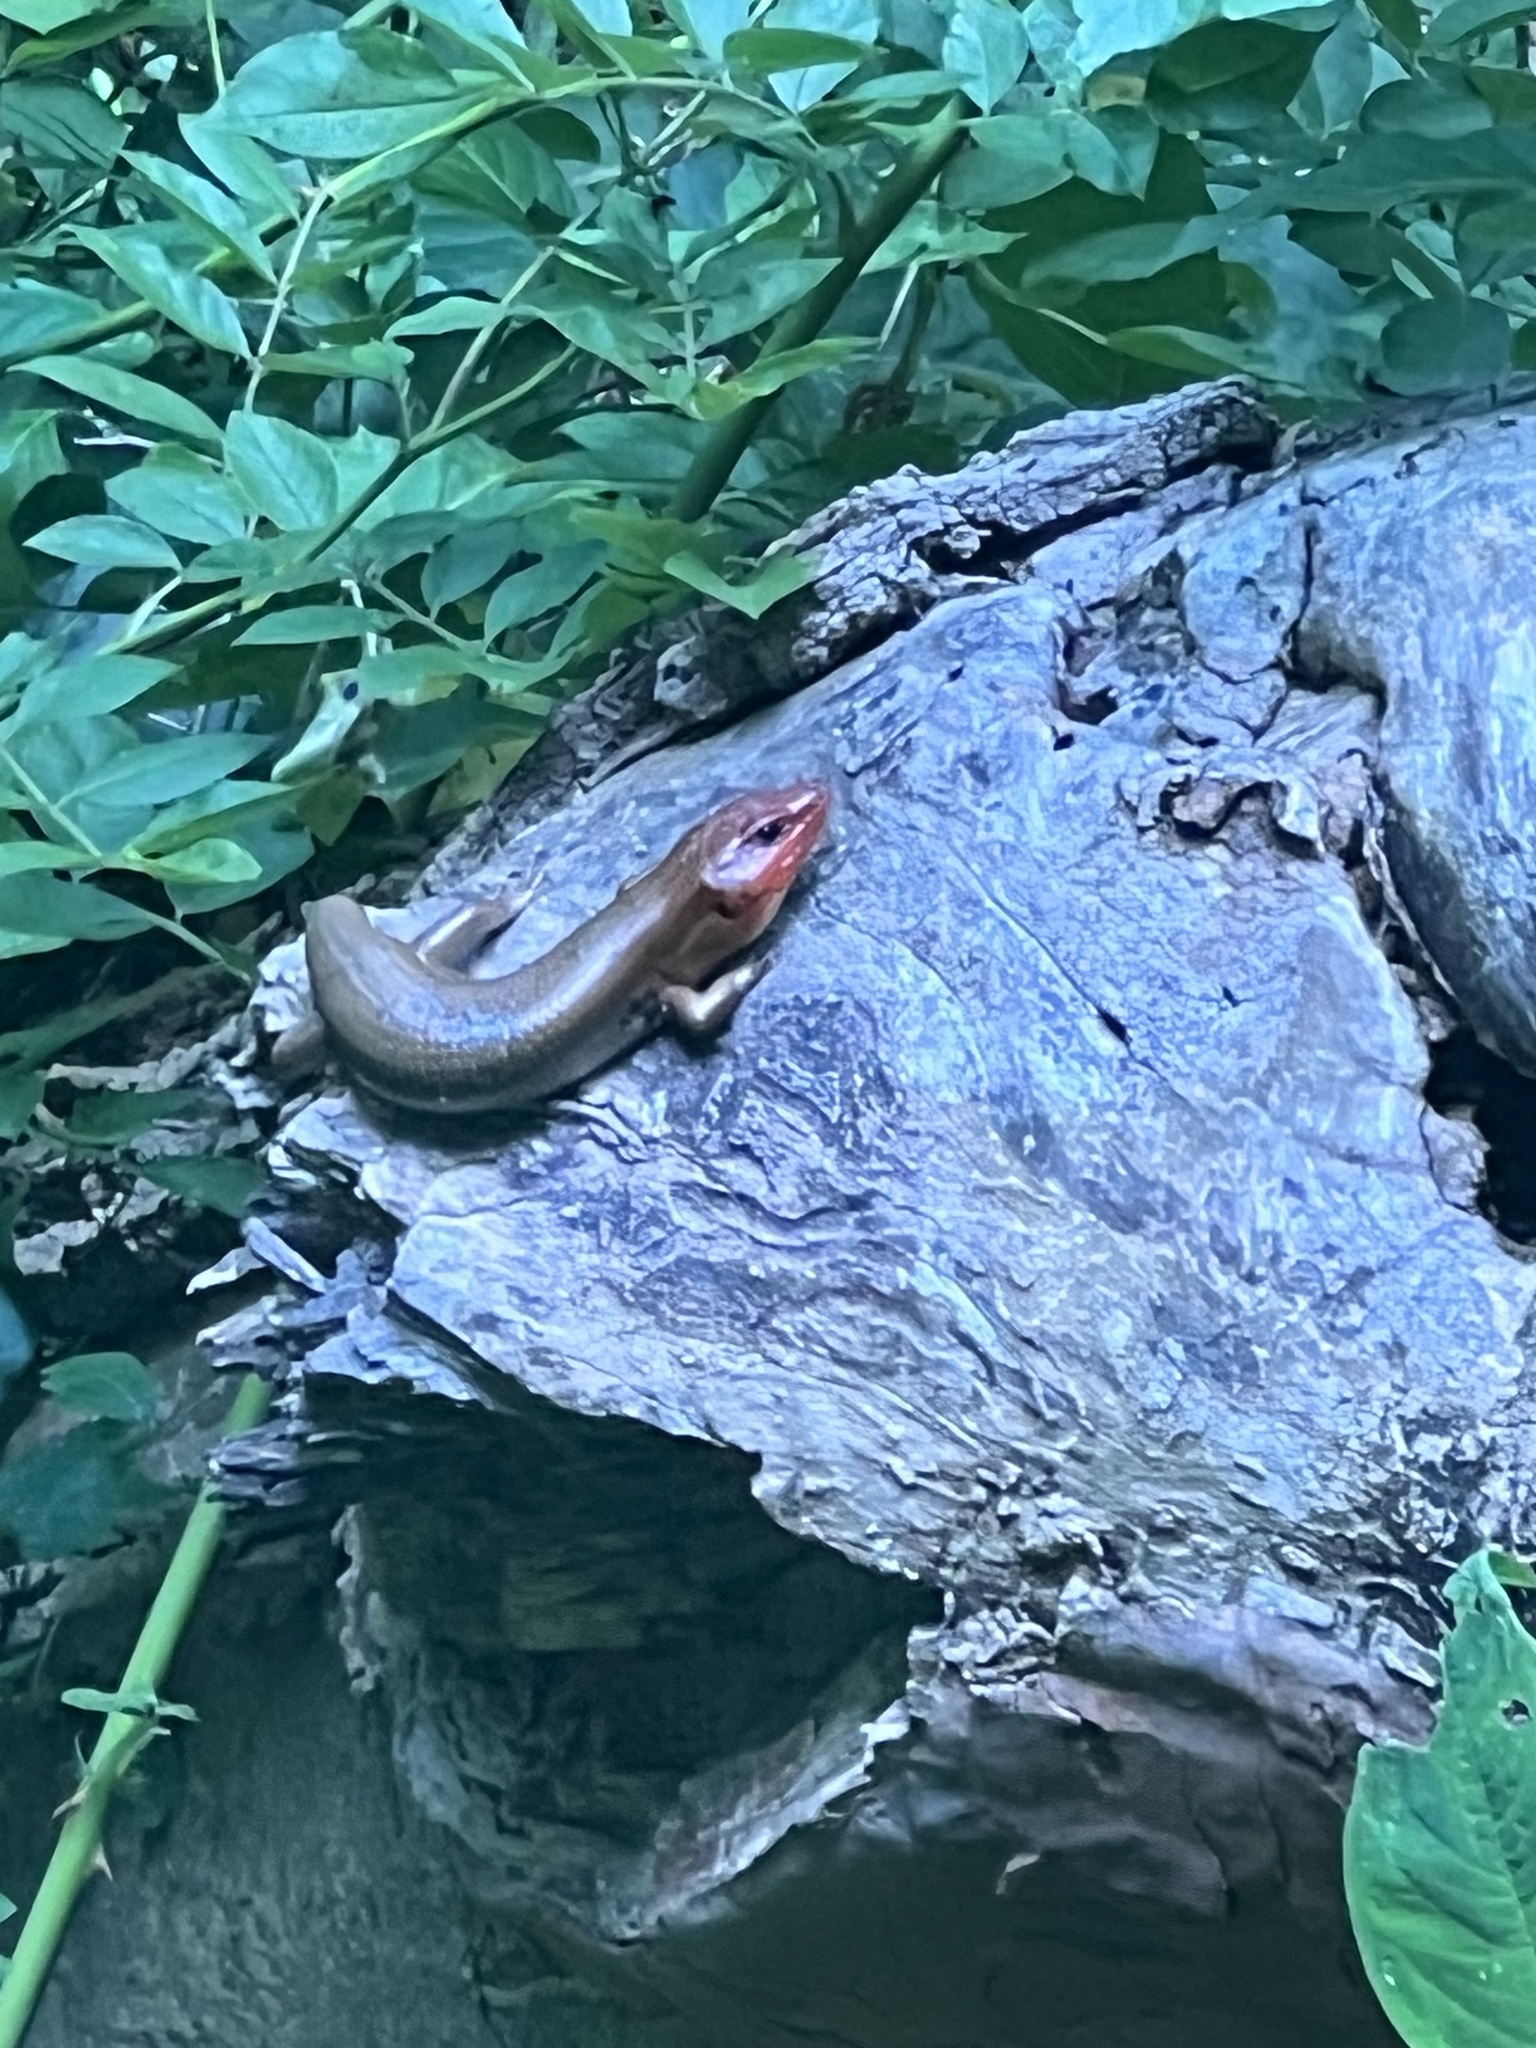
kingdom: Animalia
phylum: Chordata
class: Squamata
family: Scincidae
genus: Plestiodon
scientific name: Plestiodon laticeps
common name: Broadhead skink
